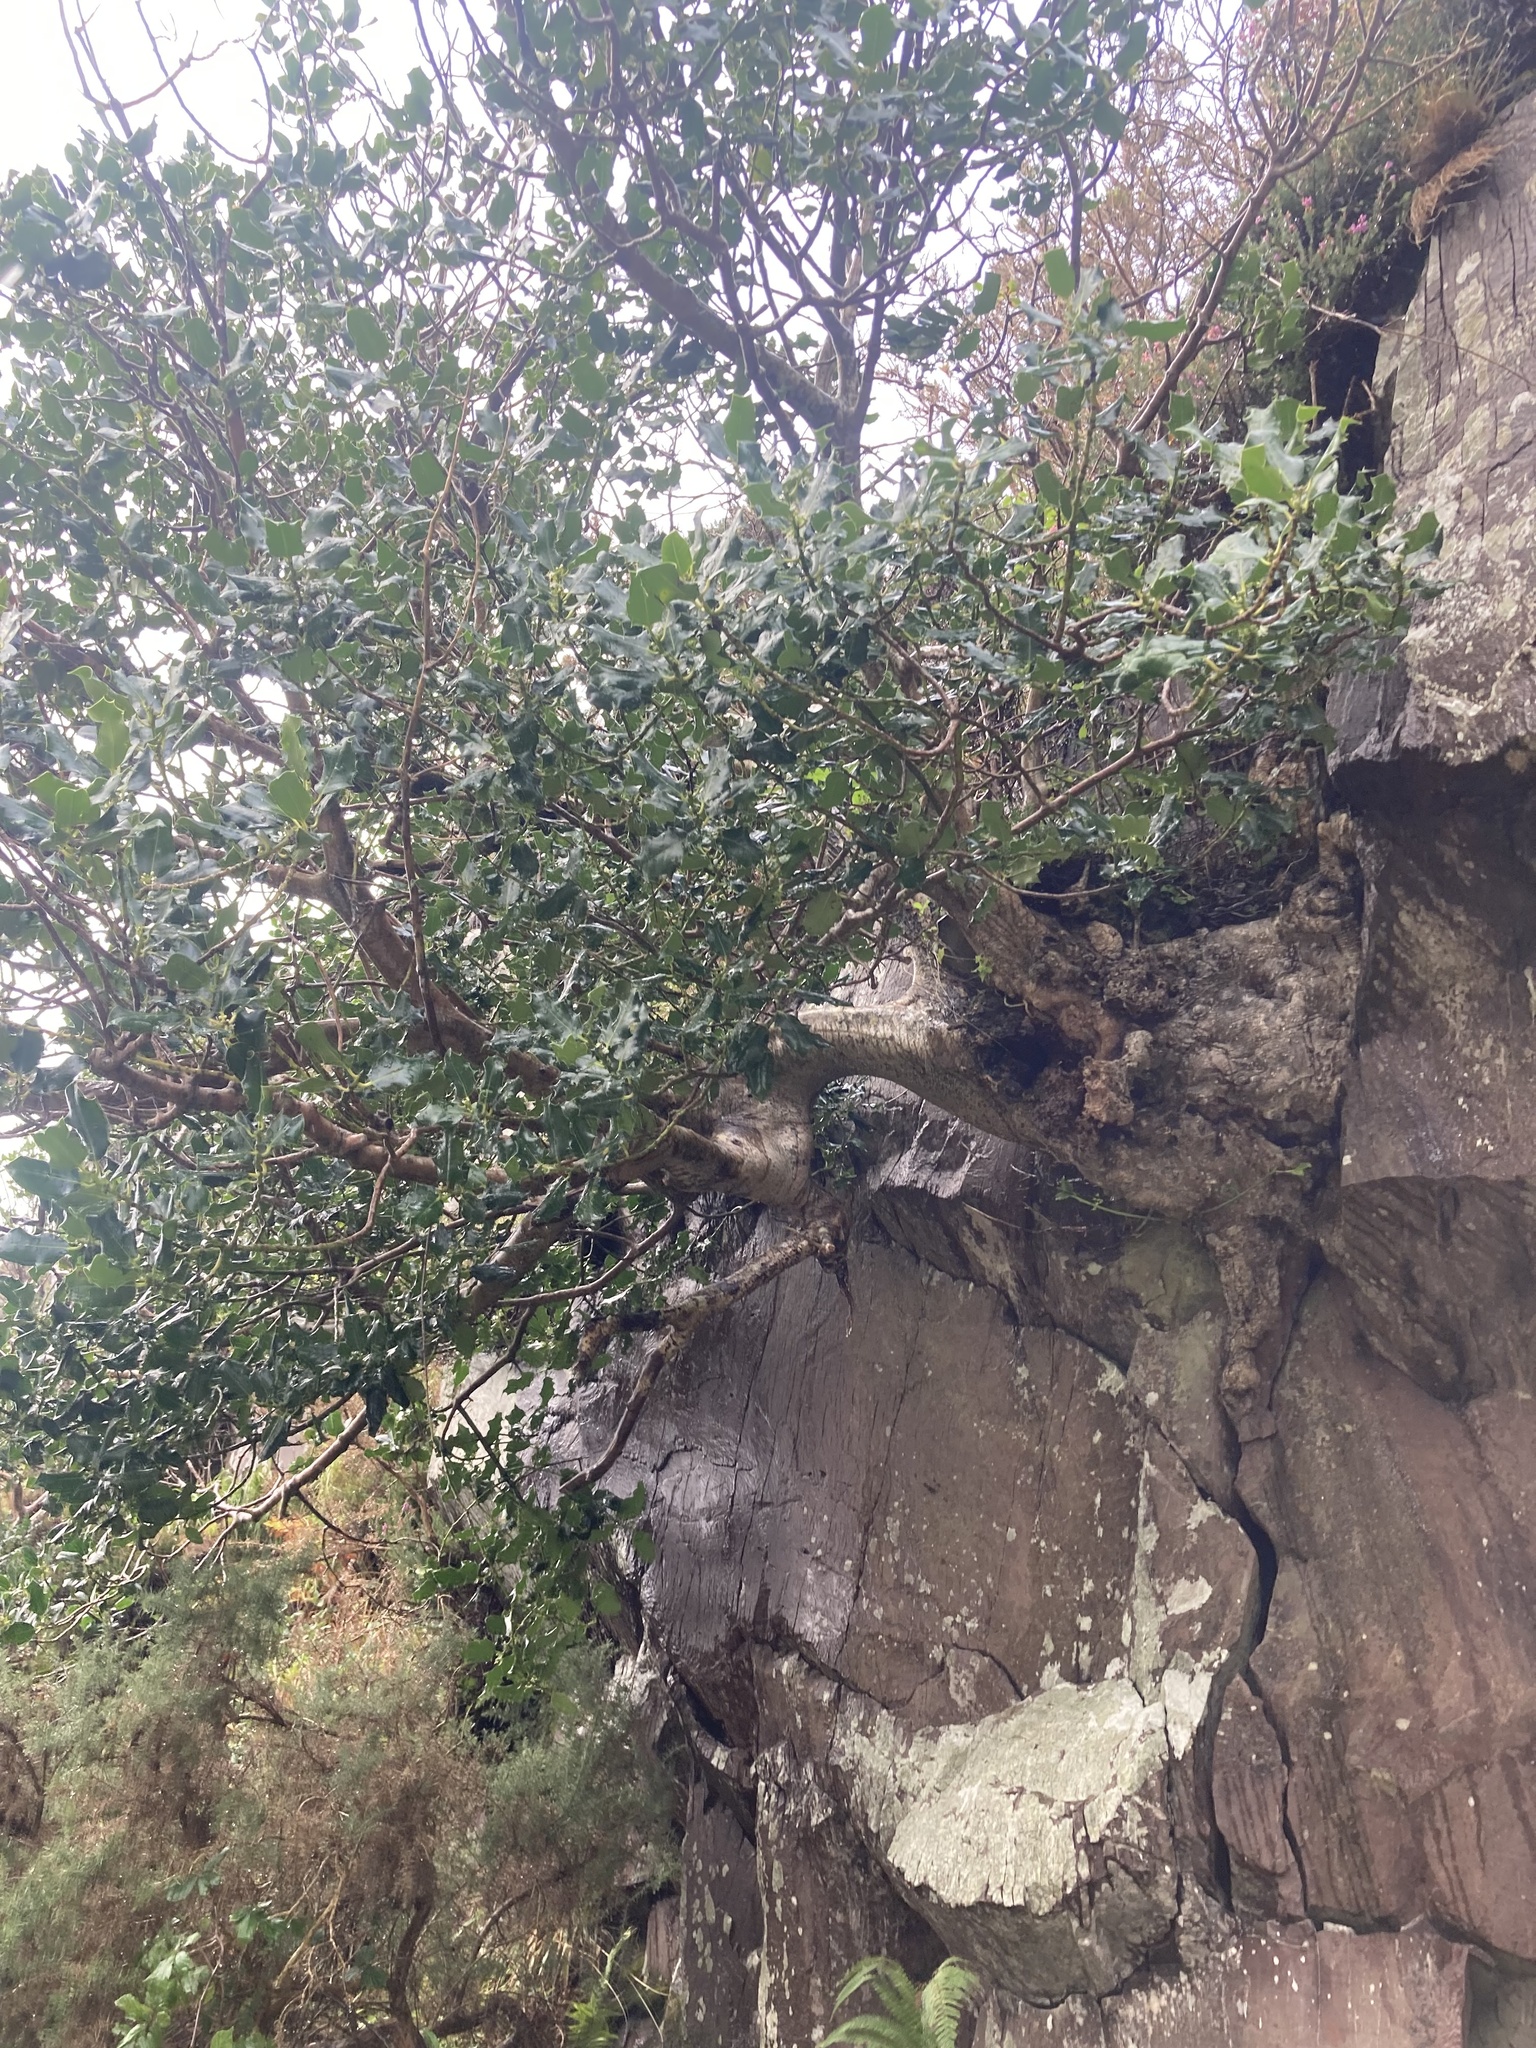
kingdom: Plantae
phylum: Tracheophyta
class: Magnoliopsida
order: Aquifoliales
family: Aquifoliaceae
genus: Ilex
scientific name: Ilex aquifolium
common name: English holly
